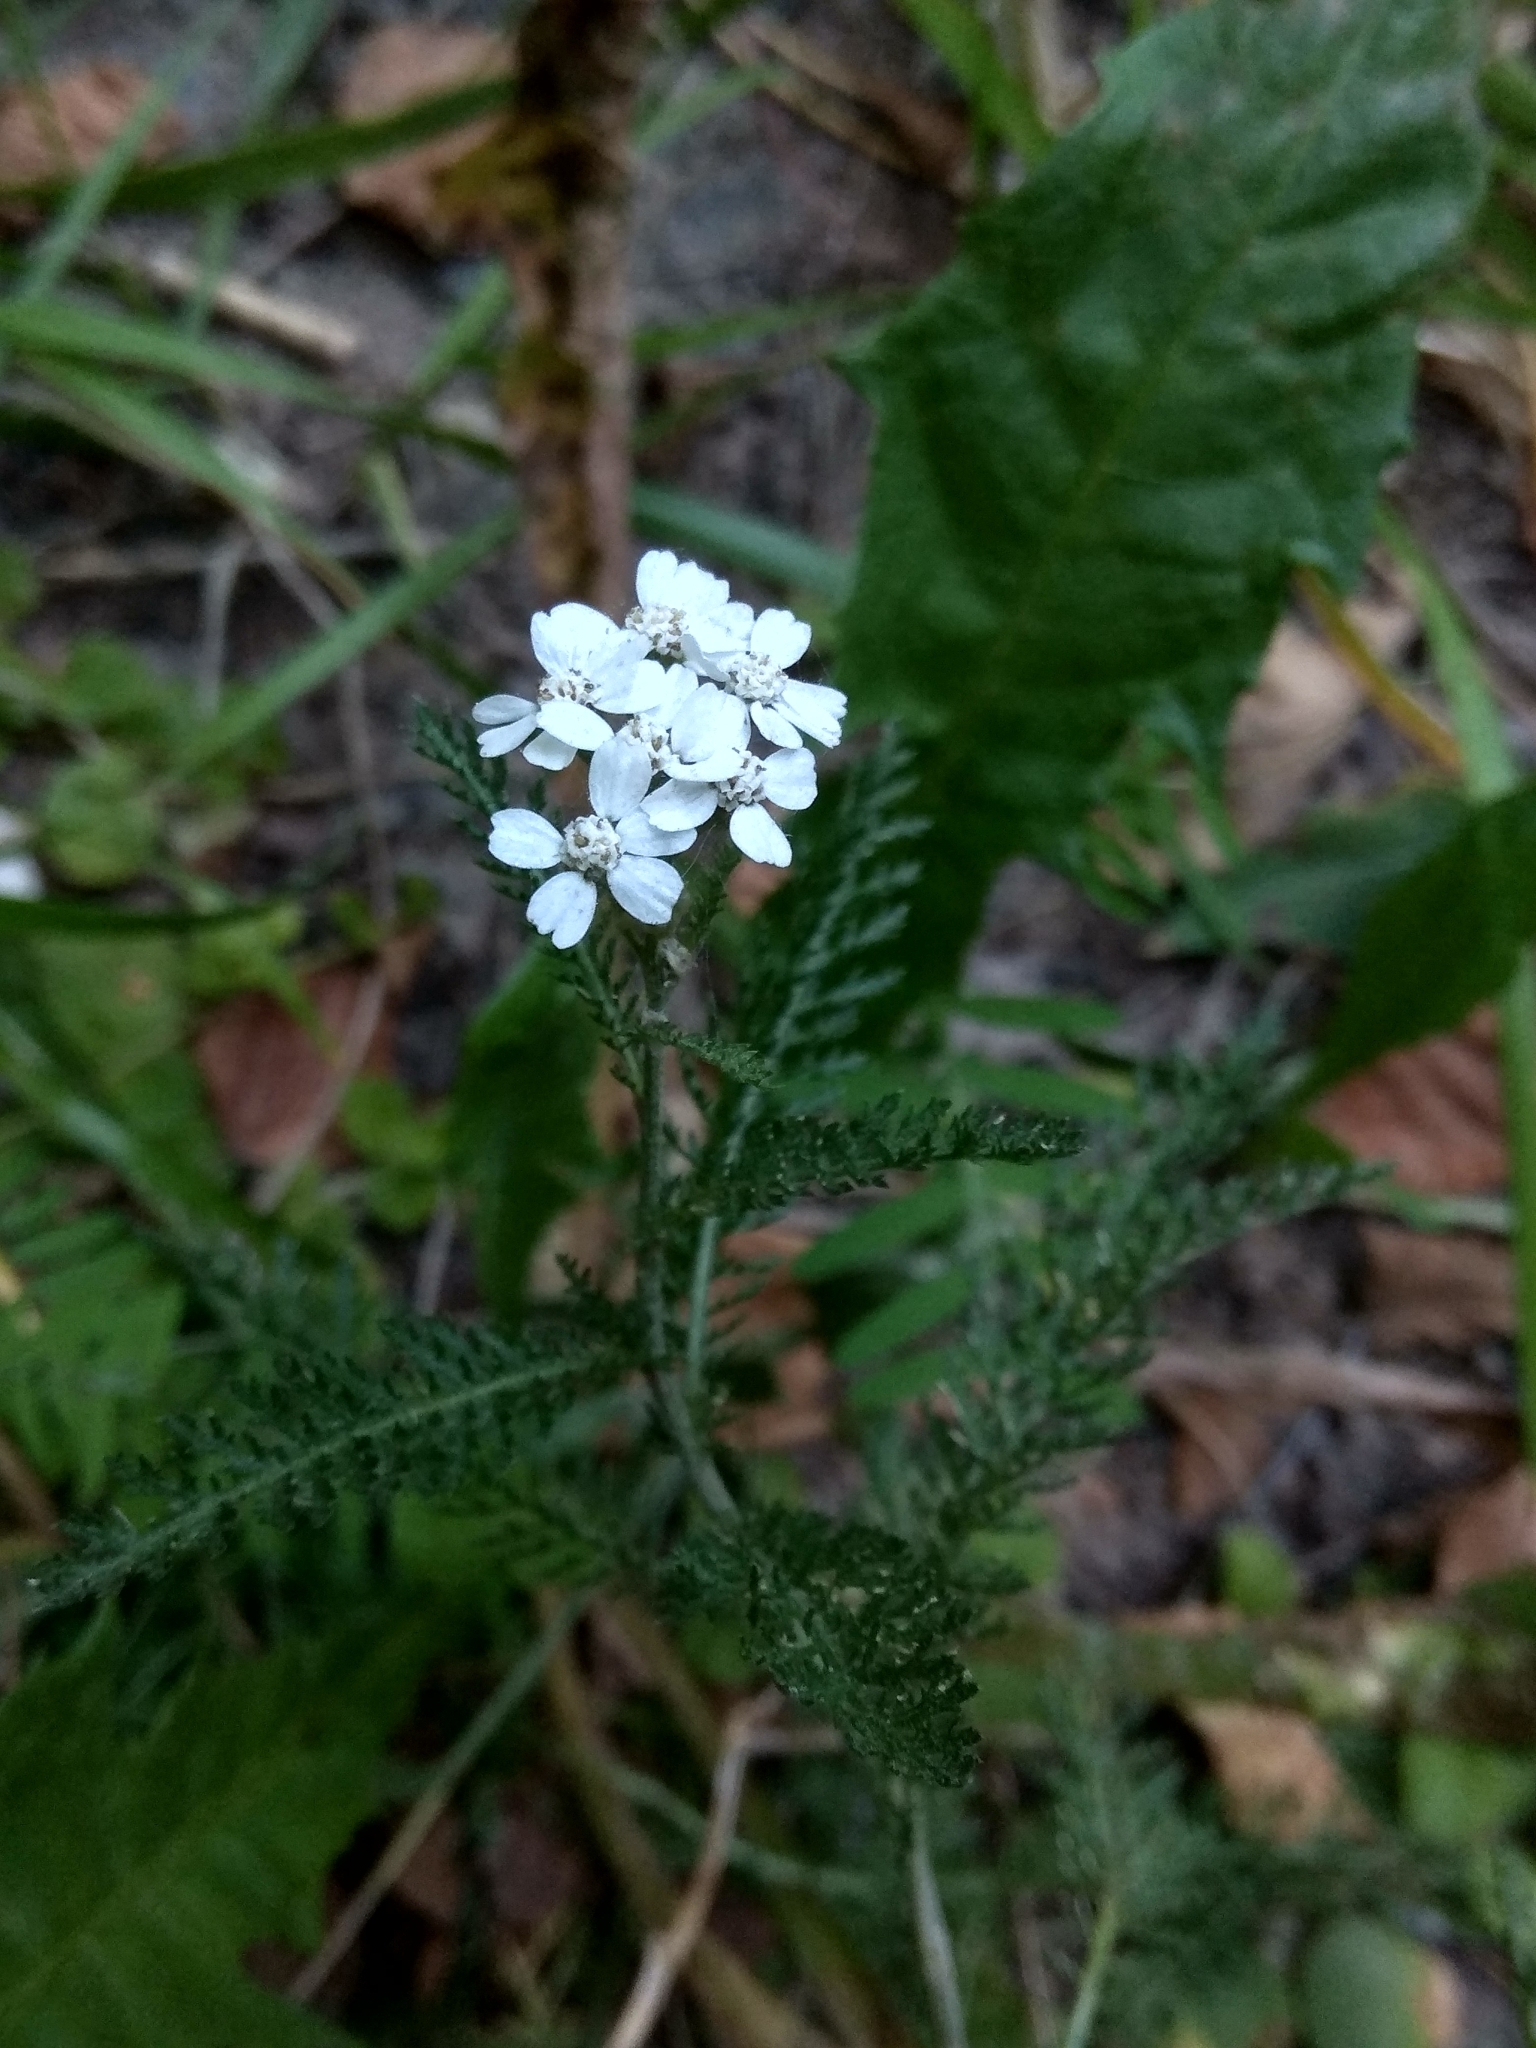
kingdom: Plantae
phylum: Tracheophyta
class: Magnoliopsida
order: Asterales
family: Asteraceae
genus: Achillea
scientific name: Achillea millefolium
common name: Yarrow
